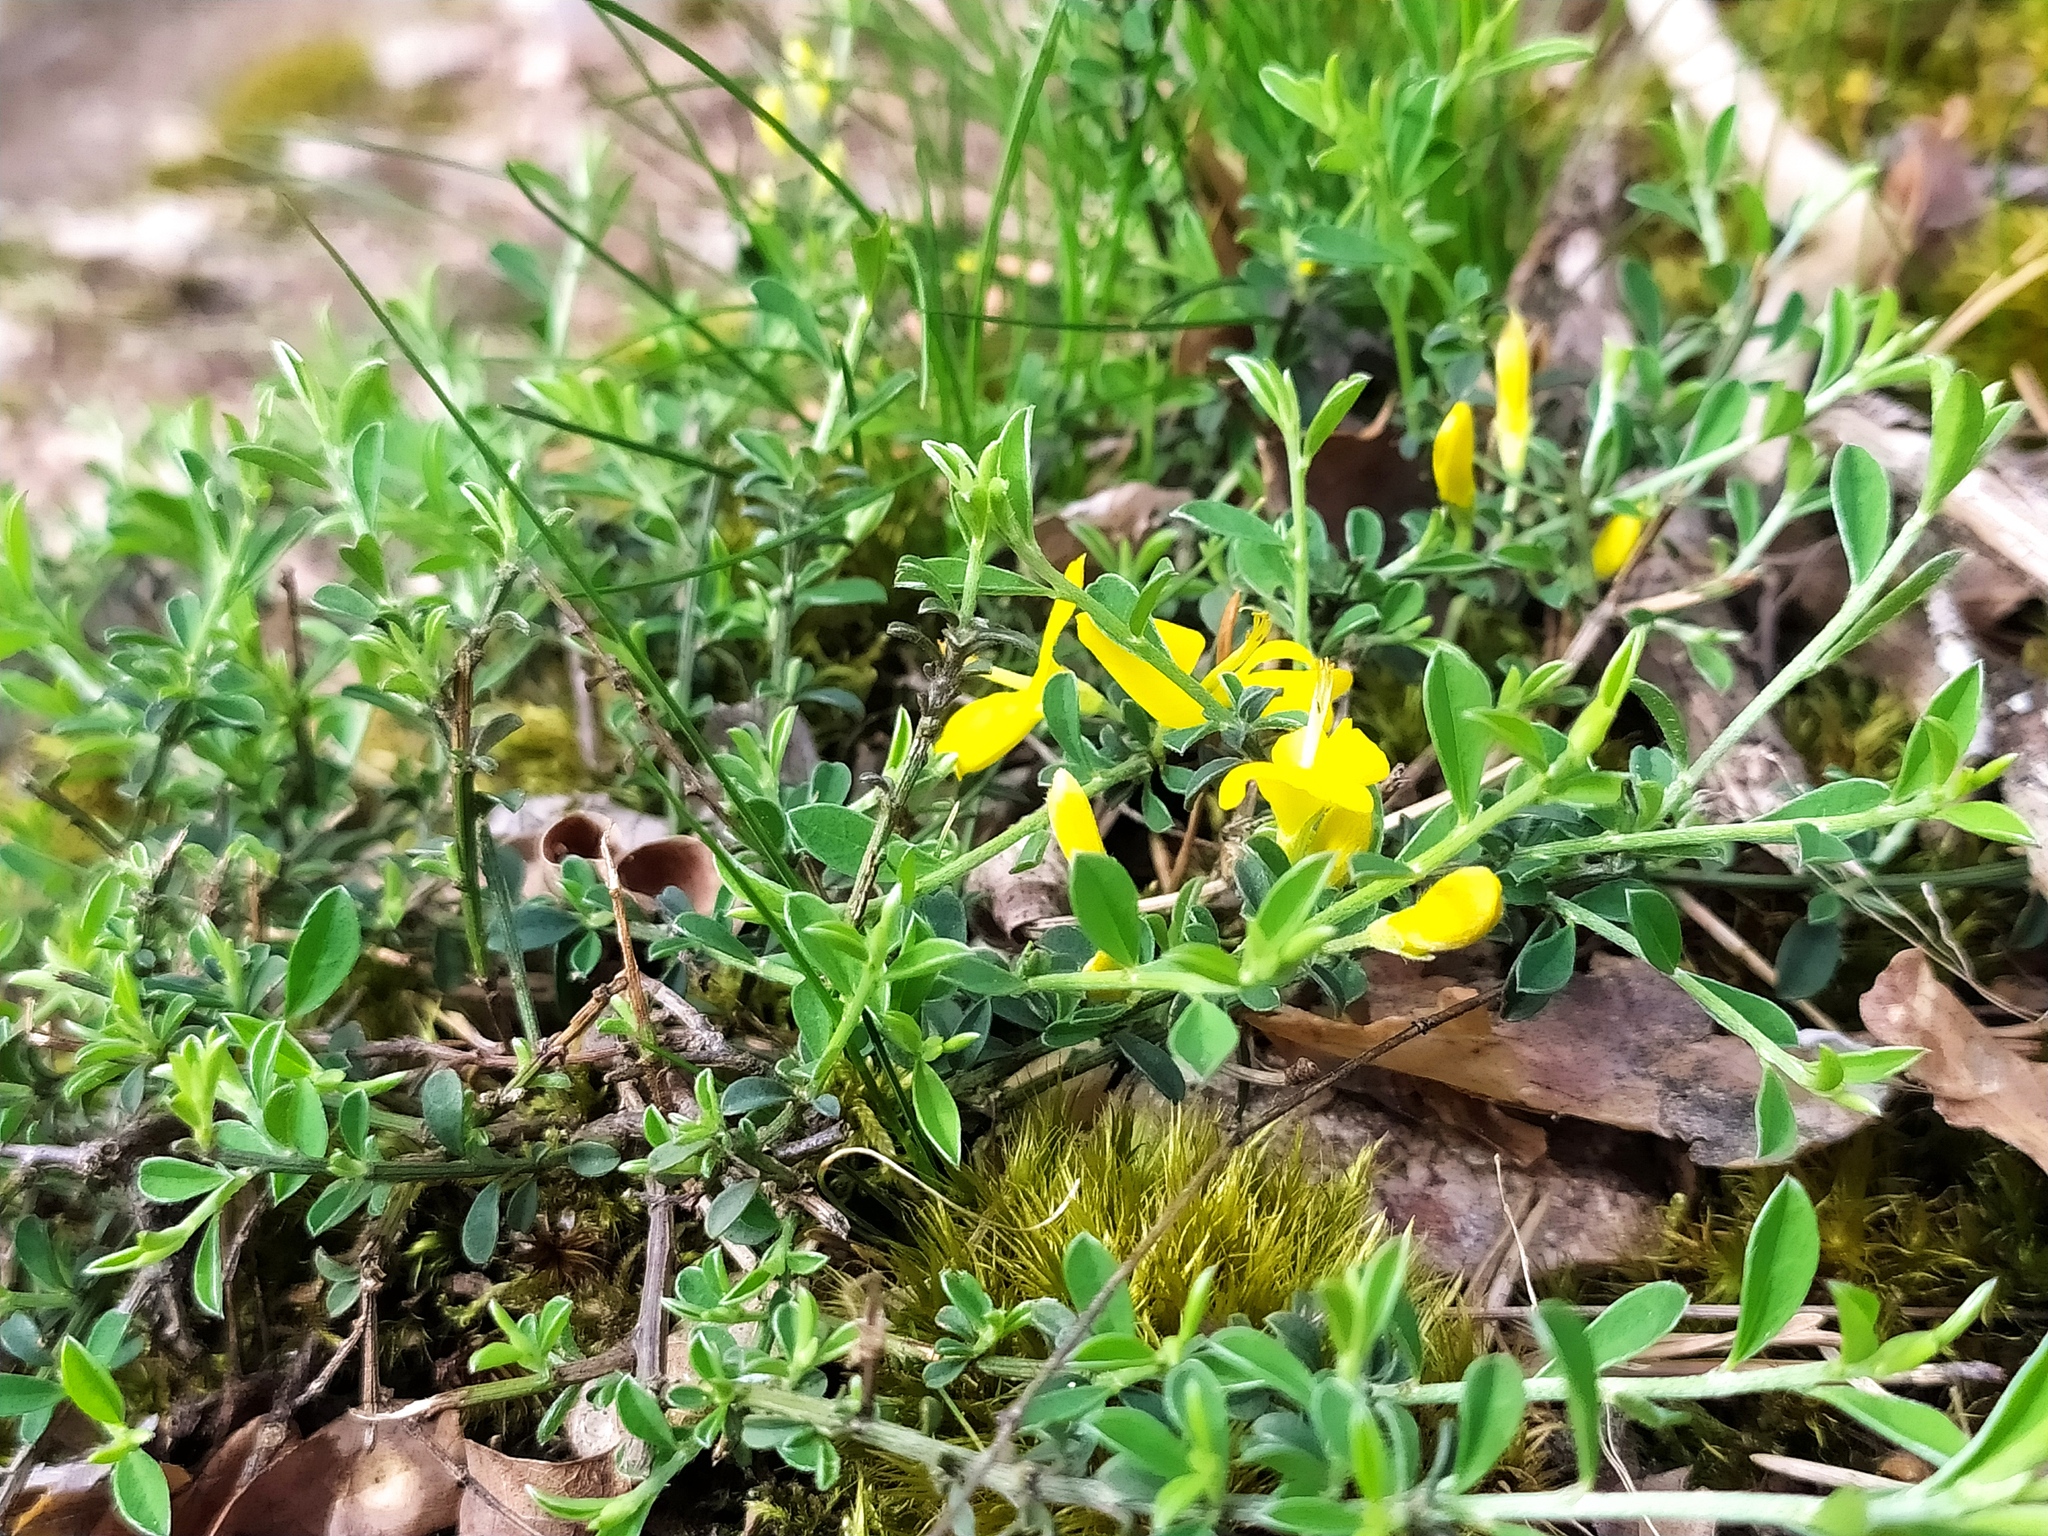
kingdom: Plantae
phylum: Tracheophyta
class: Magnoliopsida
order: Fabales
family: Fabaceae
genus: Genista
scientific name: Genista pilosa
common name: Hairy greenweed
